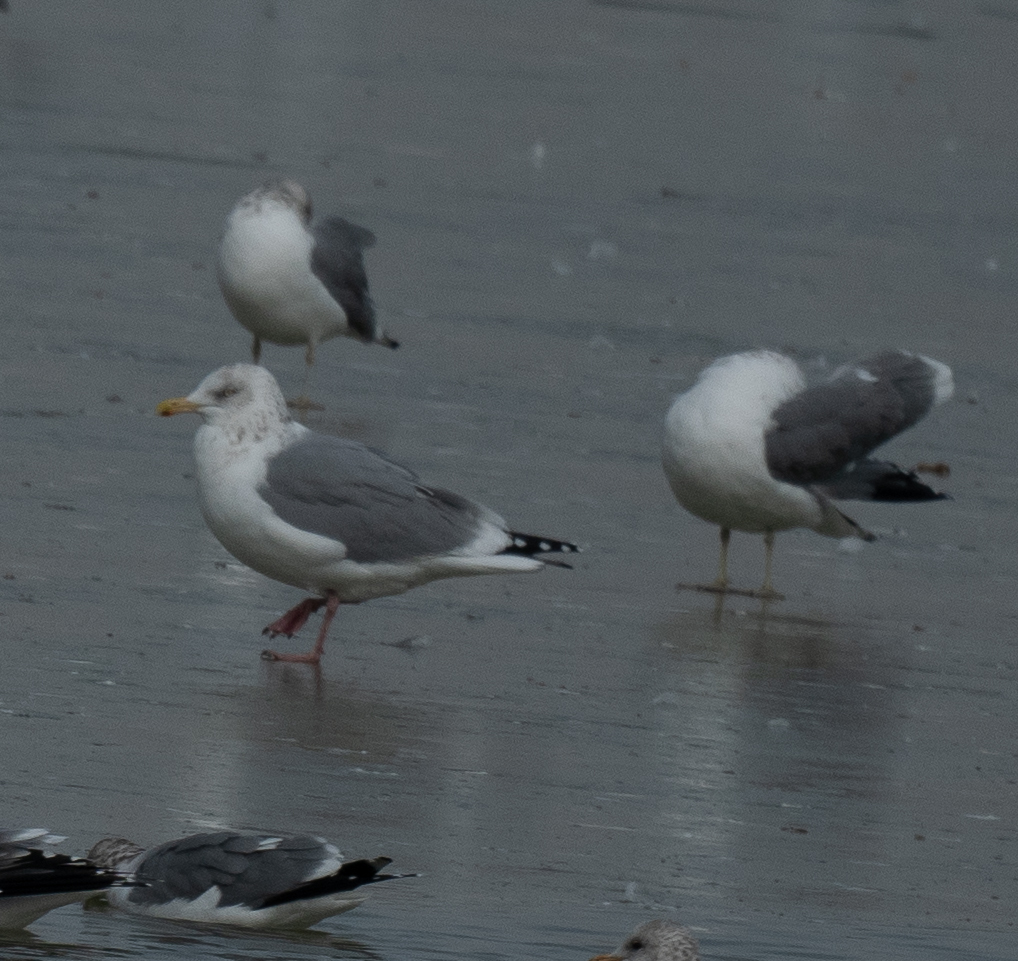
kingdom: Animalia
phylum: Chordata
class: Aves
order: Charadriiformes
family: Laridae
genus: Larus
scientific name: Larus argentatus
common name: Herring gull
